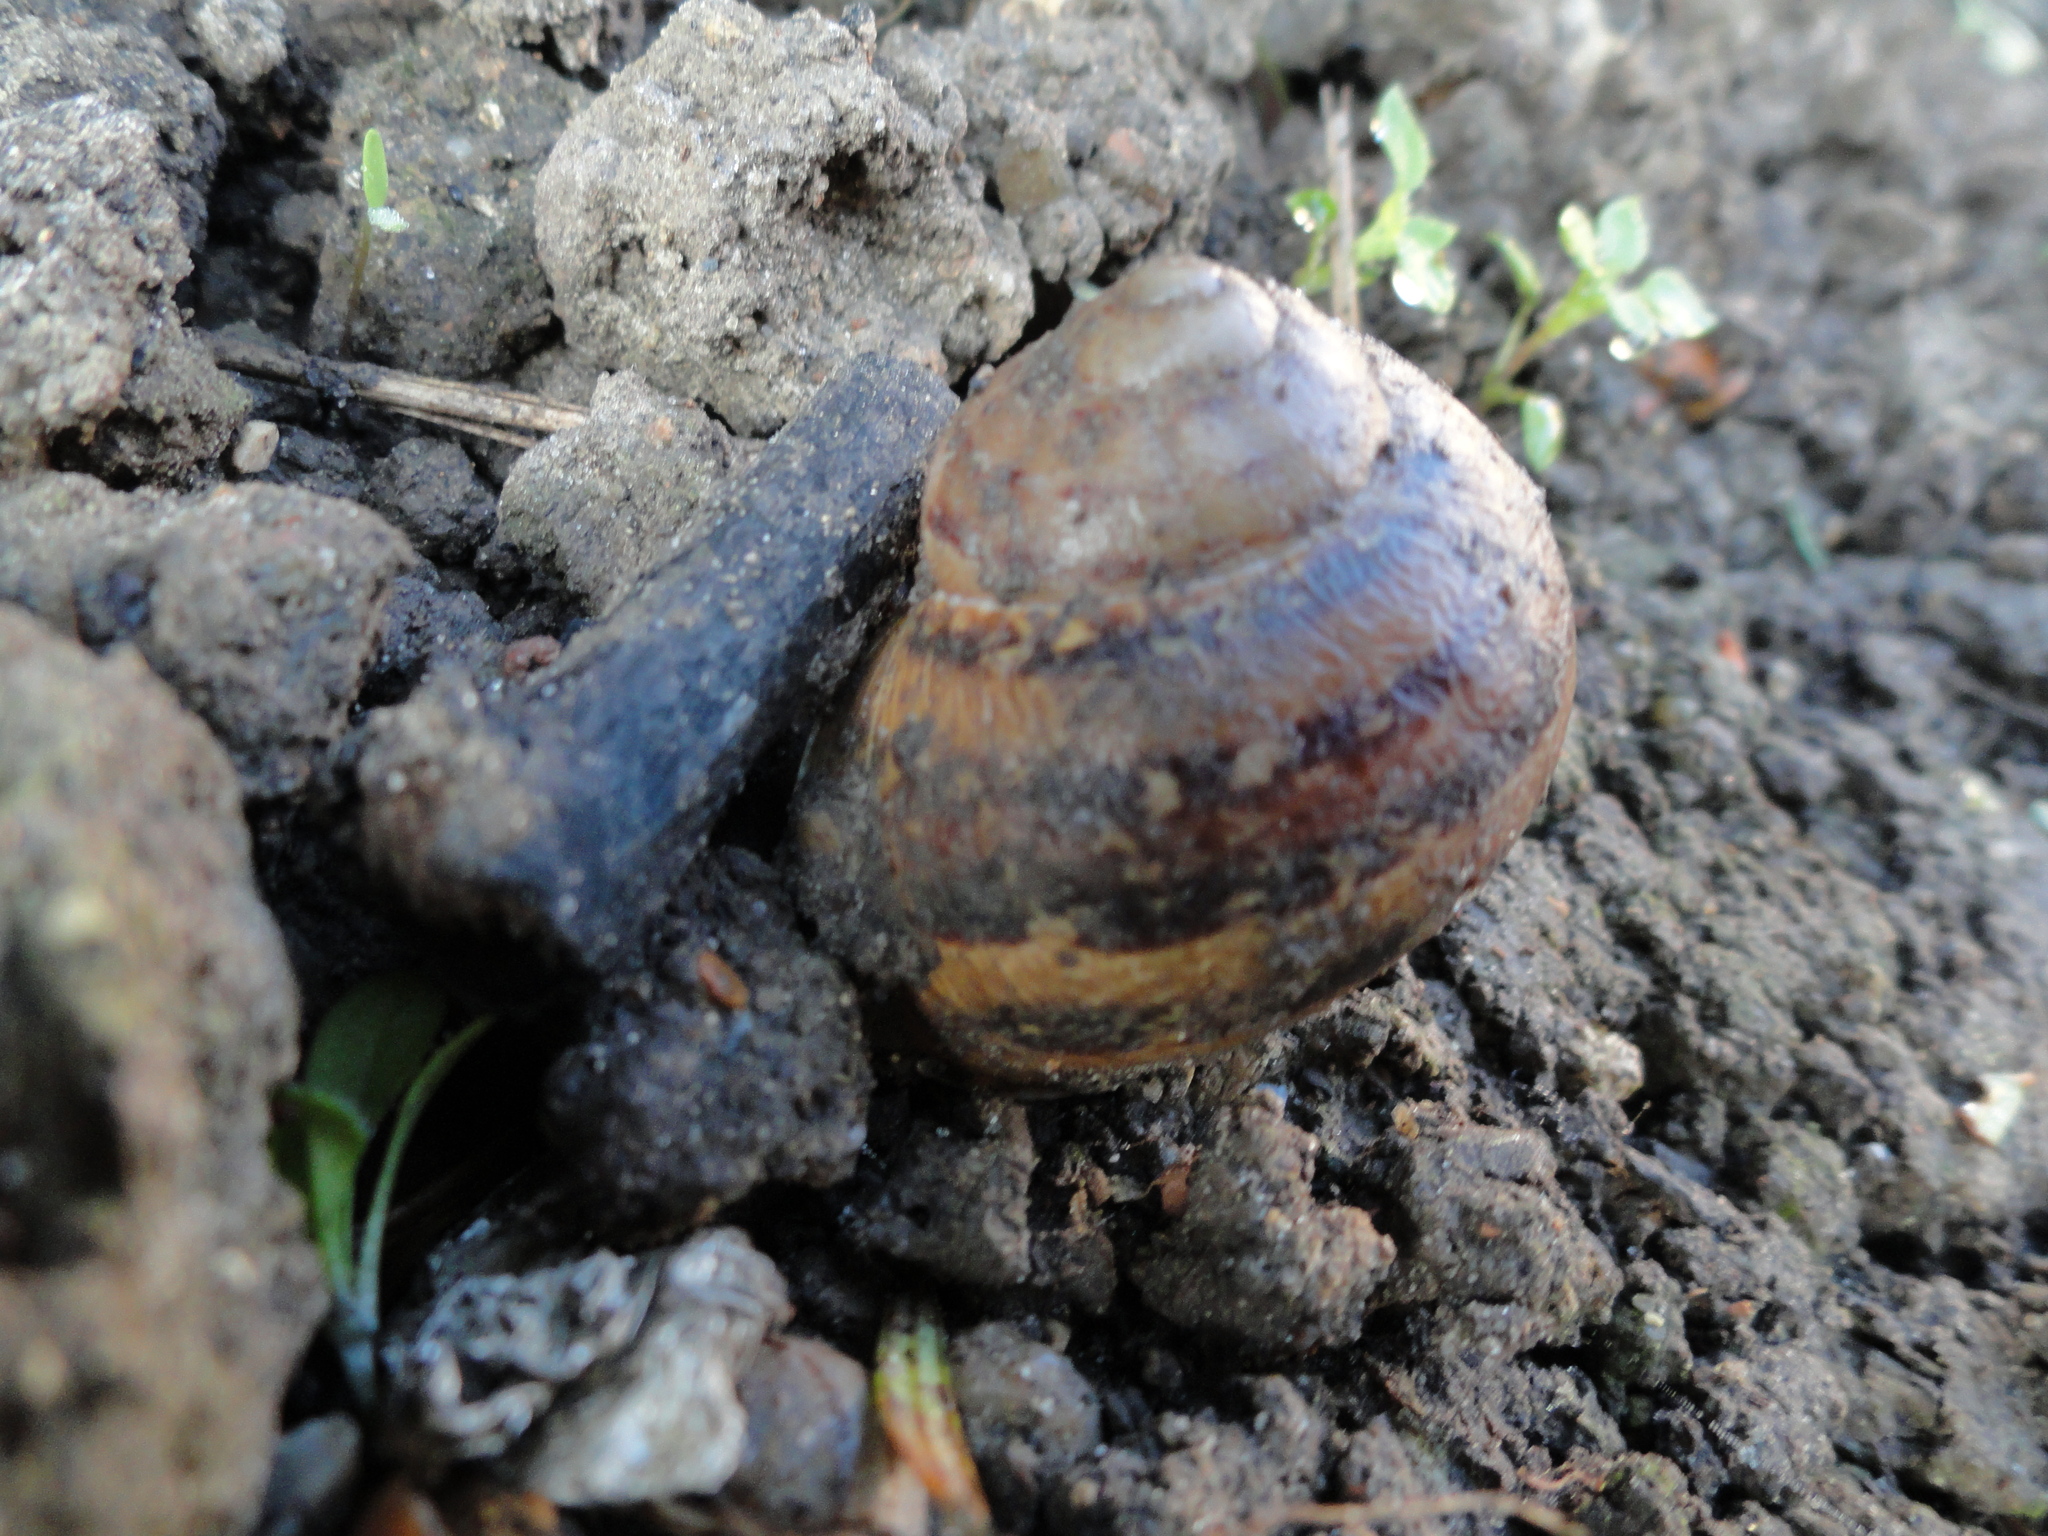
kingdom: Animalia
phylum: Mollusca
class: Gastropoda
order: Stylommatophora
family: Helicidae
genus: Cornu
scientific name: Cornu aspersum
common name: Brown garden snail
